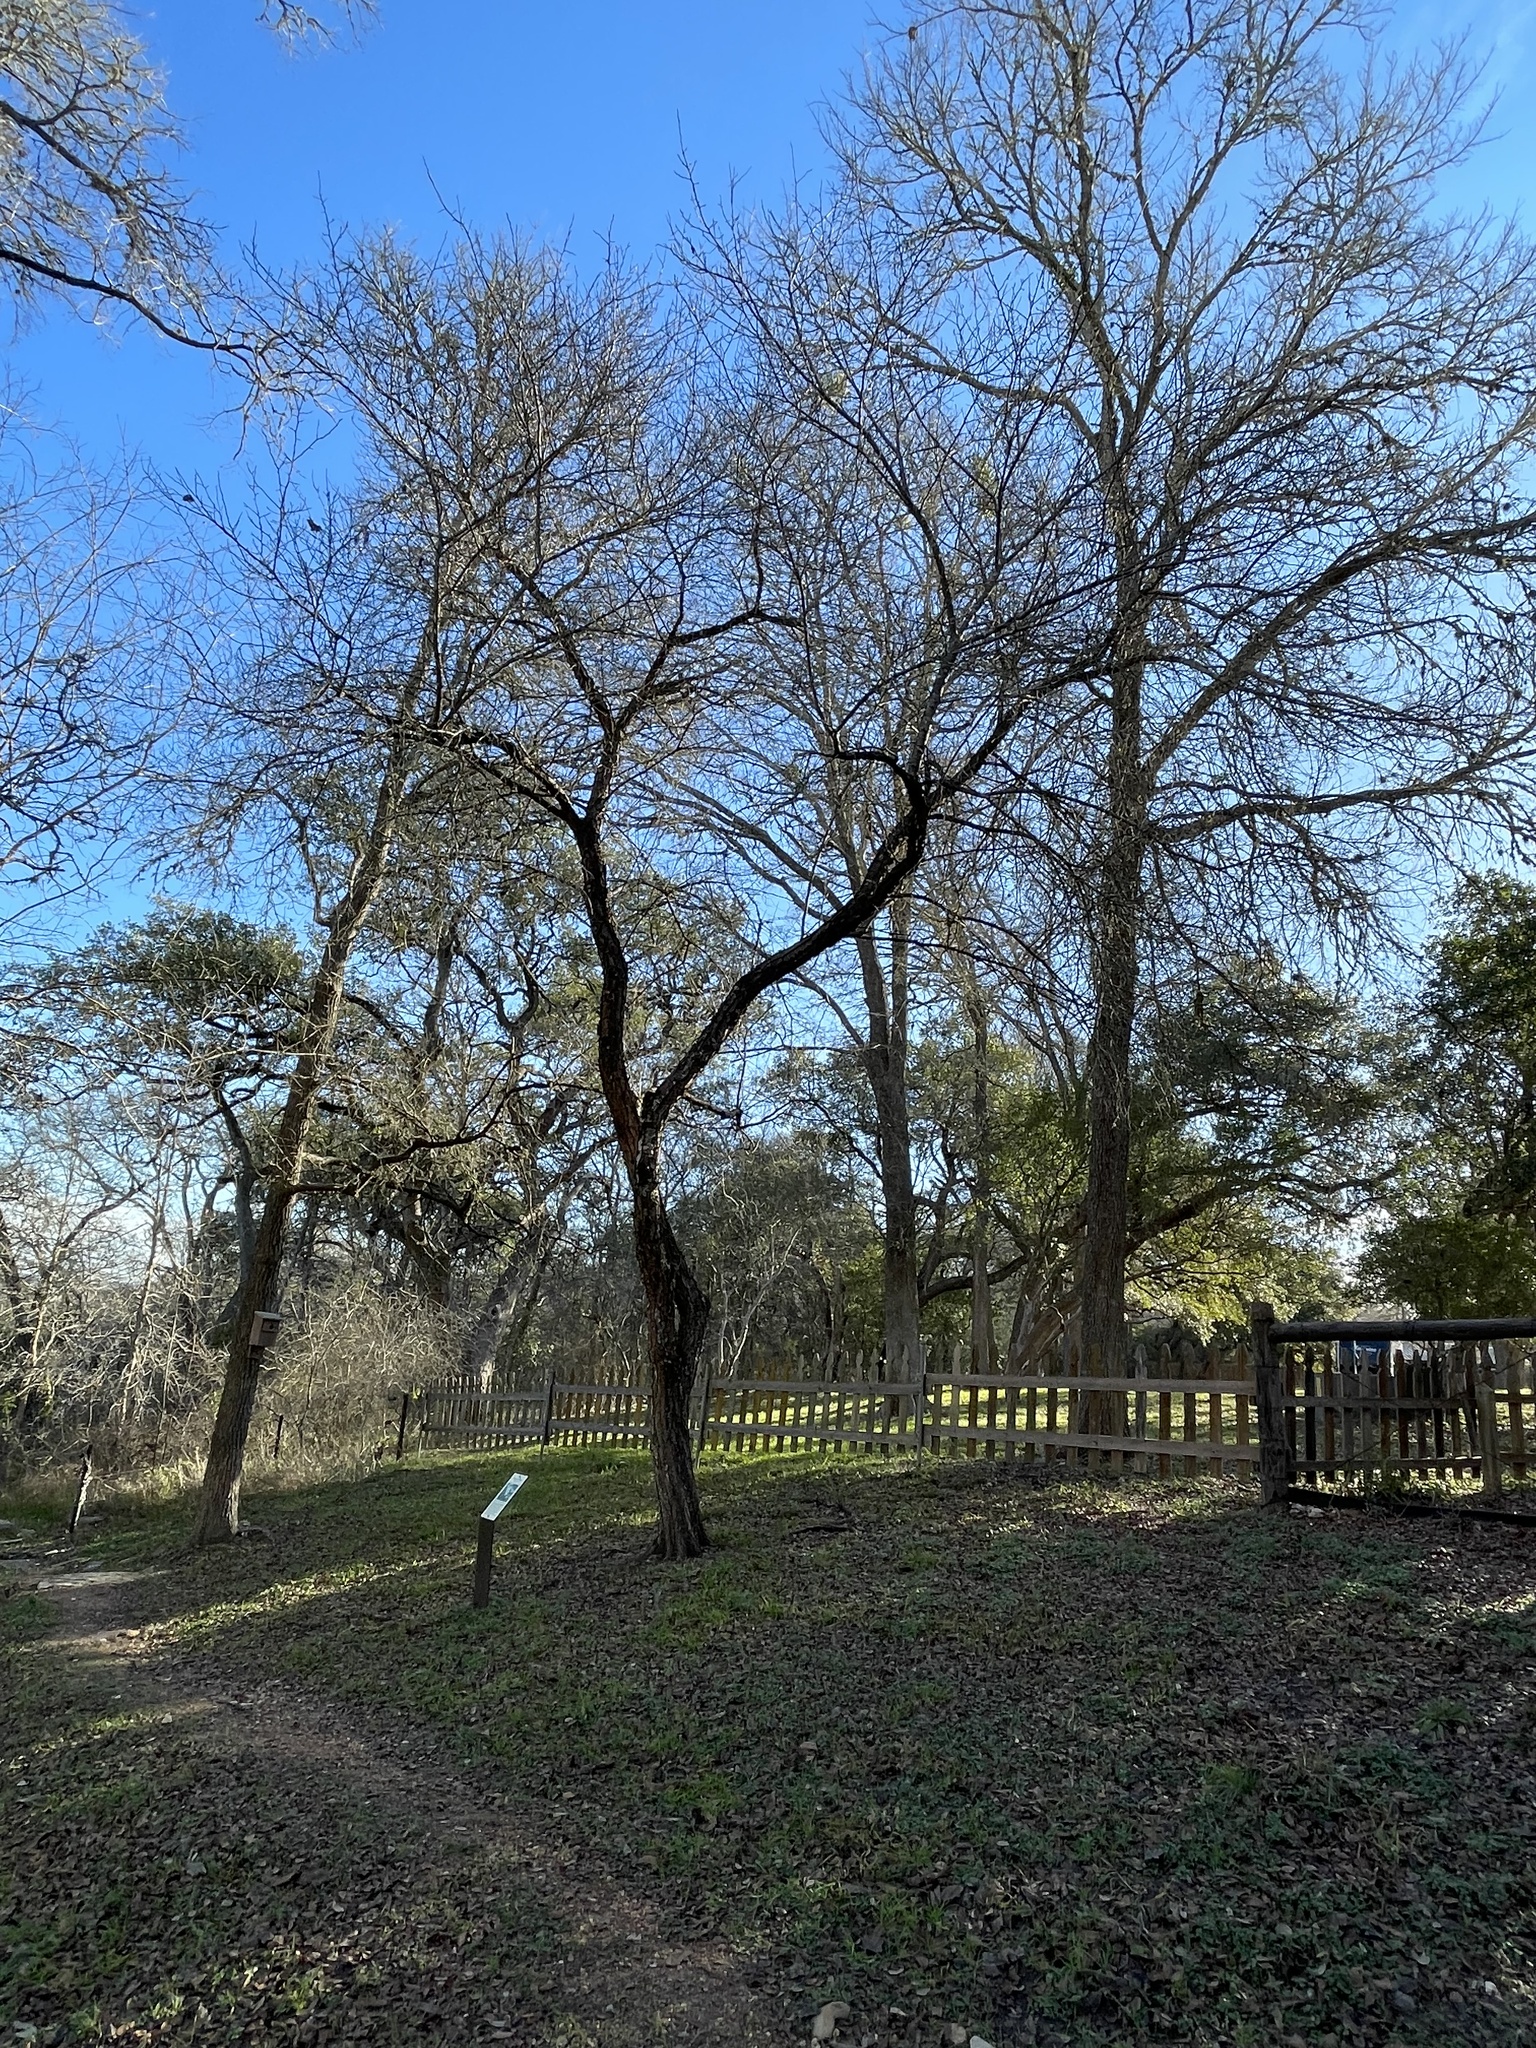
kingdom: Plantae
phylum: Tracheophyta
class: Magnoliopsida
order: Rosales
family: Rosaceae
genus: Prunus
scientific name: Prunus mexicana
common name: Mexican plum
